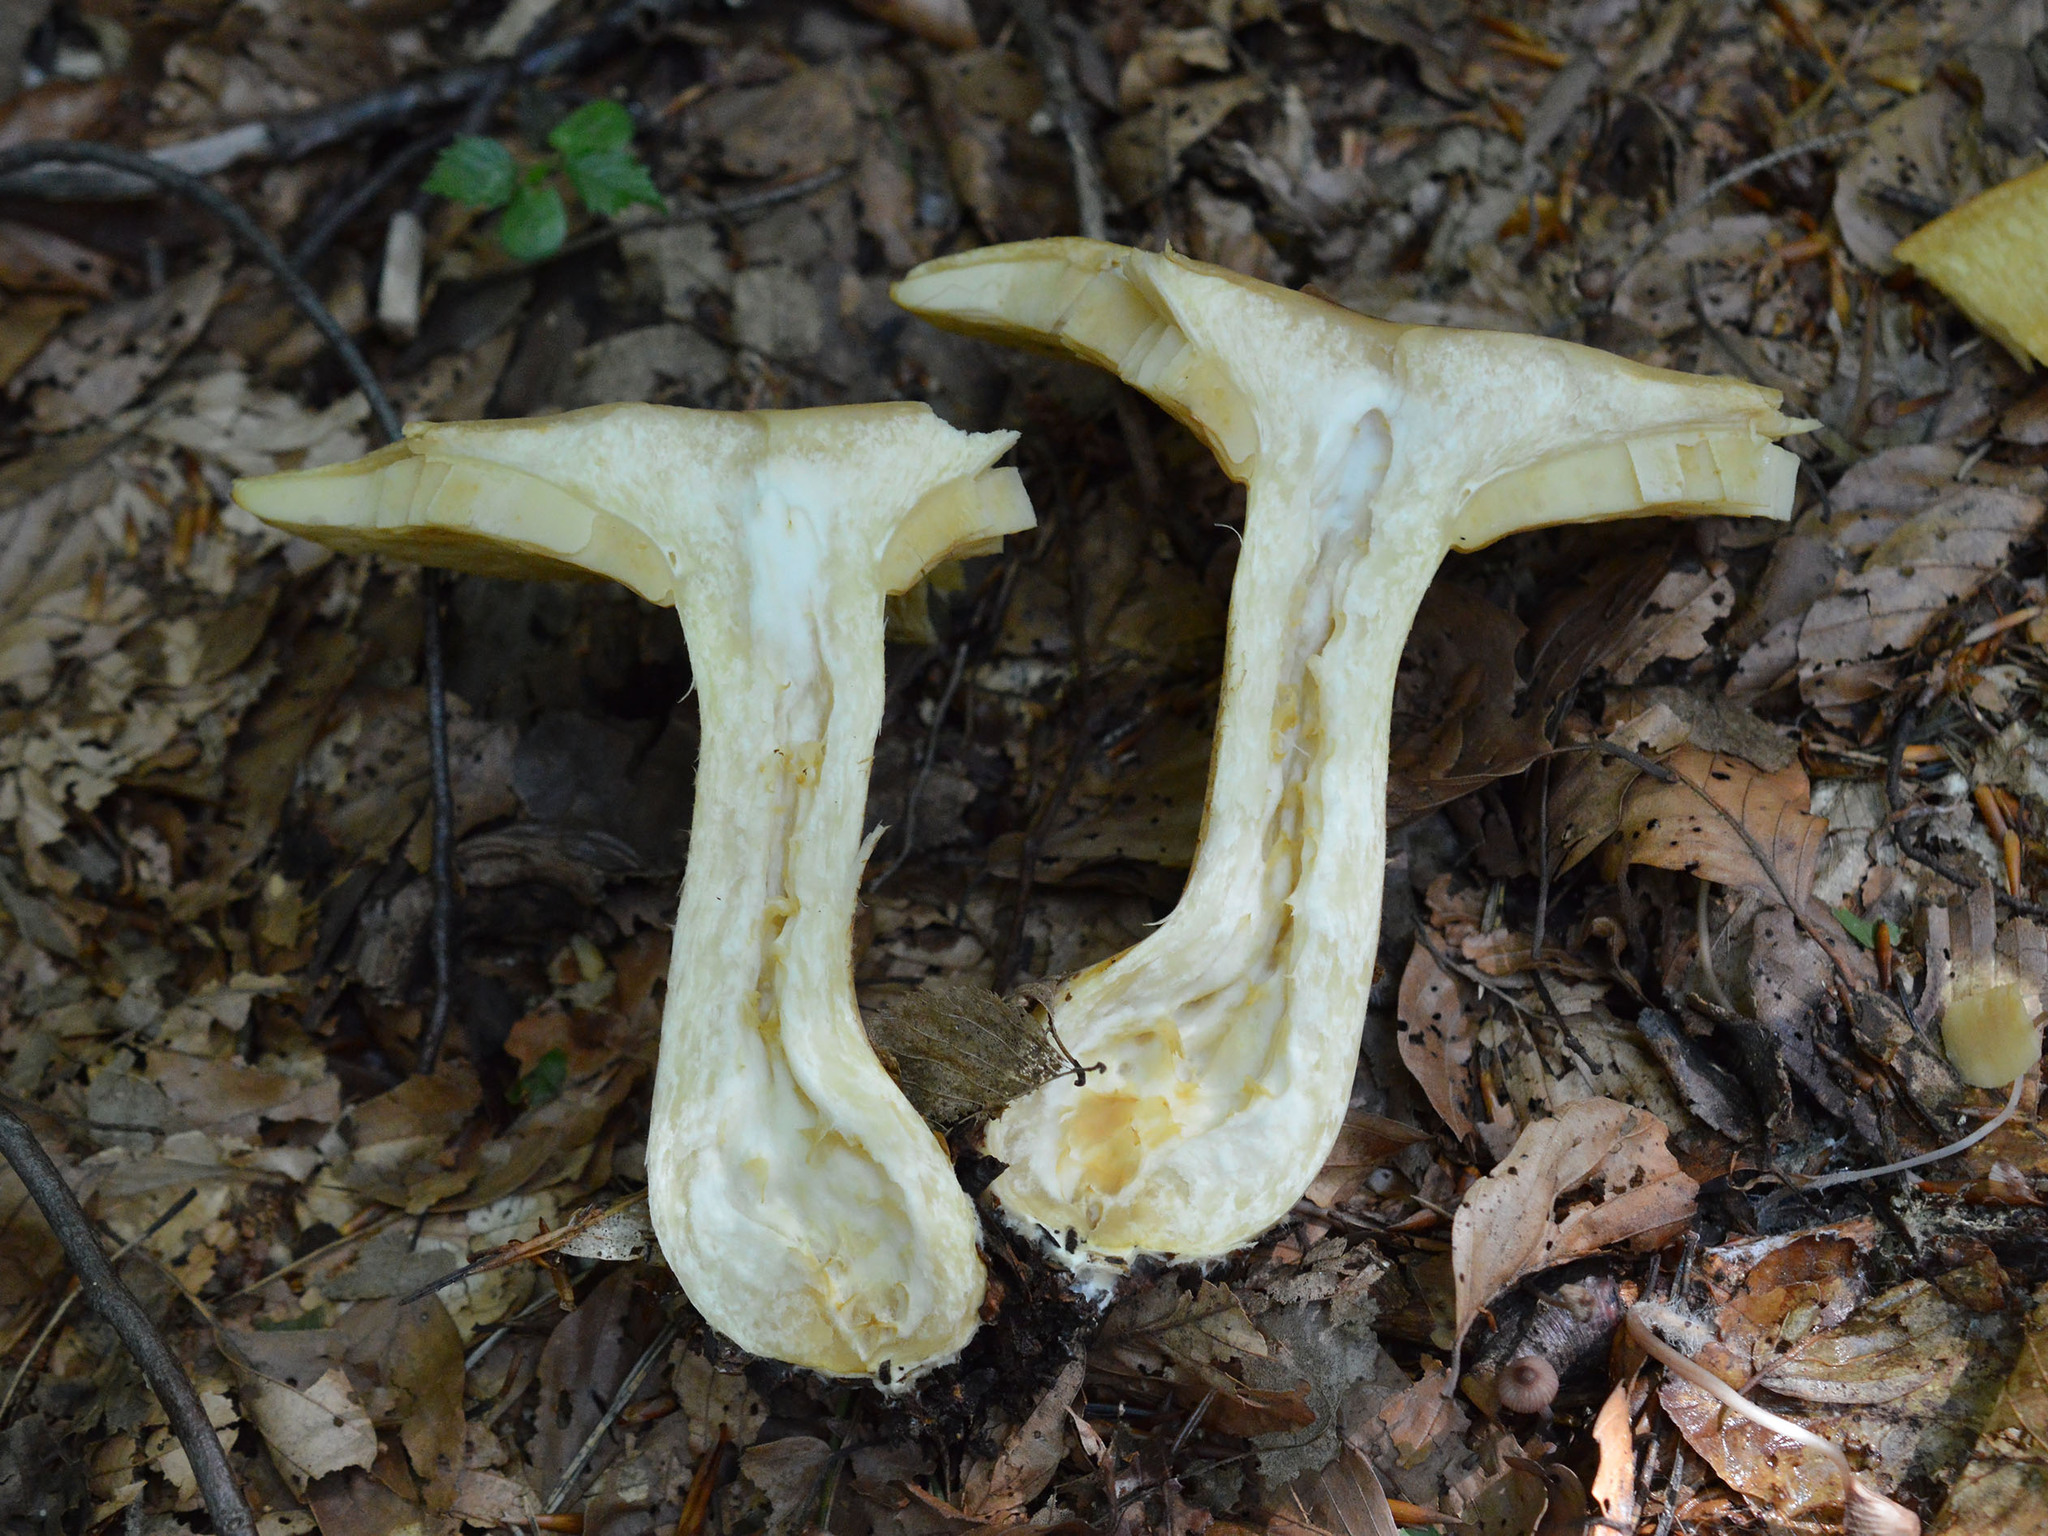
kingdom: Fungi
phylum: Basidiomycota
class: Agaricomycetes
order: Agaricales
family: Tricholomataceae
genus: Tricholomopsis
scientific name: Tricholomopsis rutilans
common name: Plums and custard
